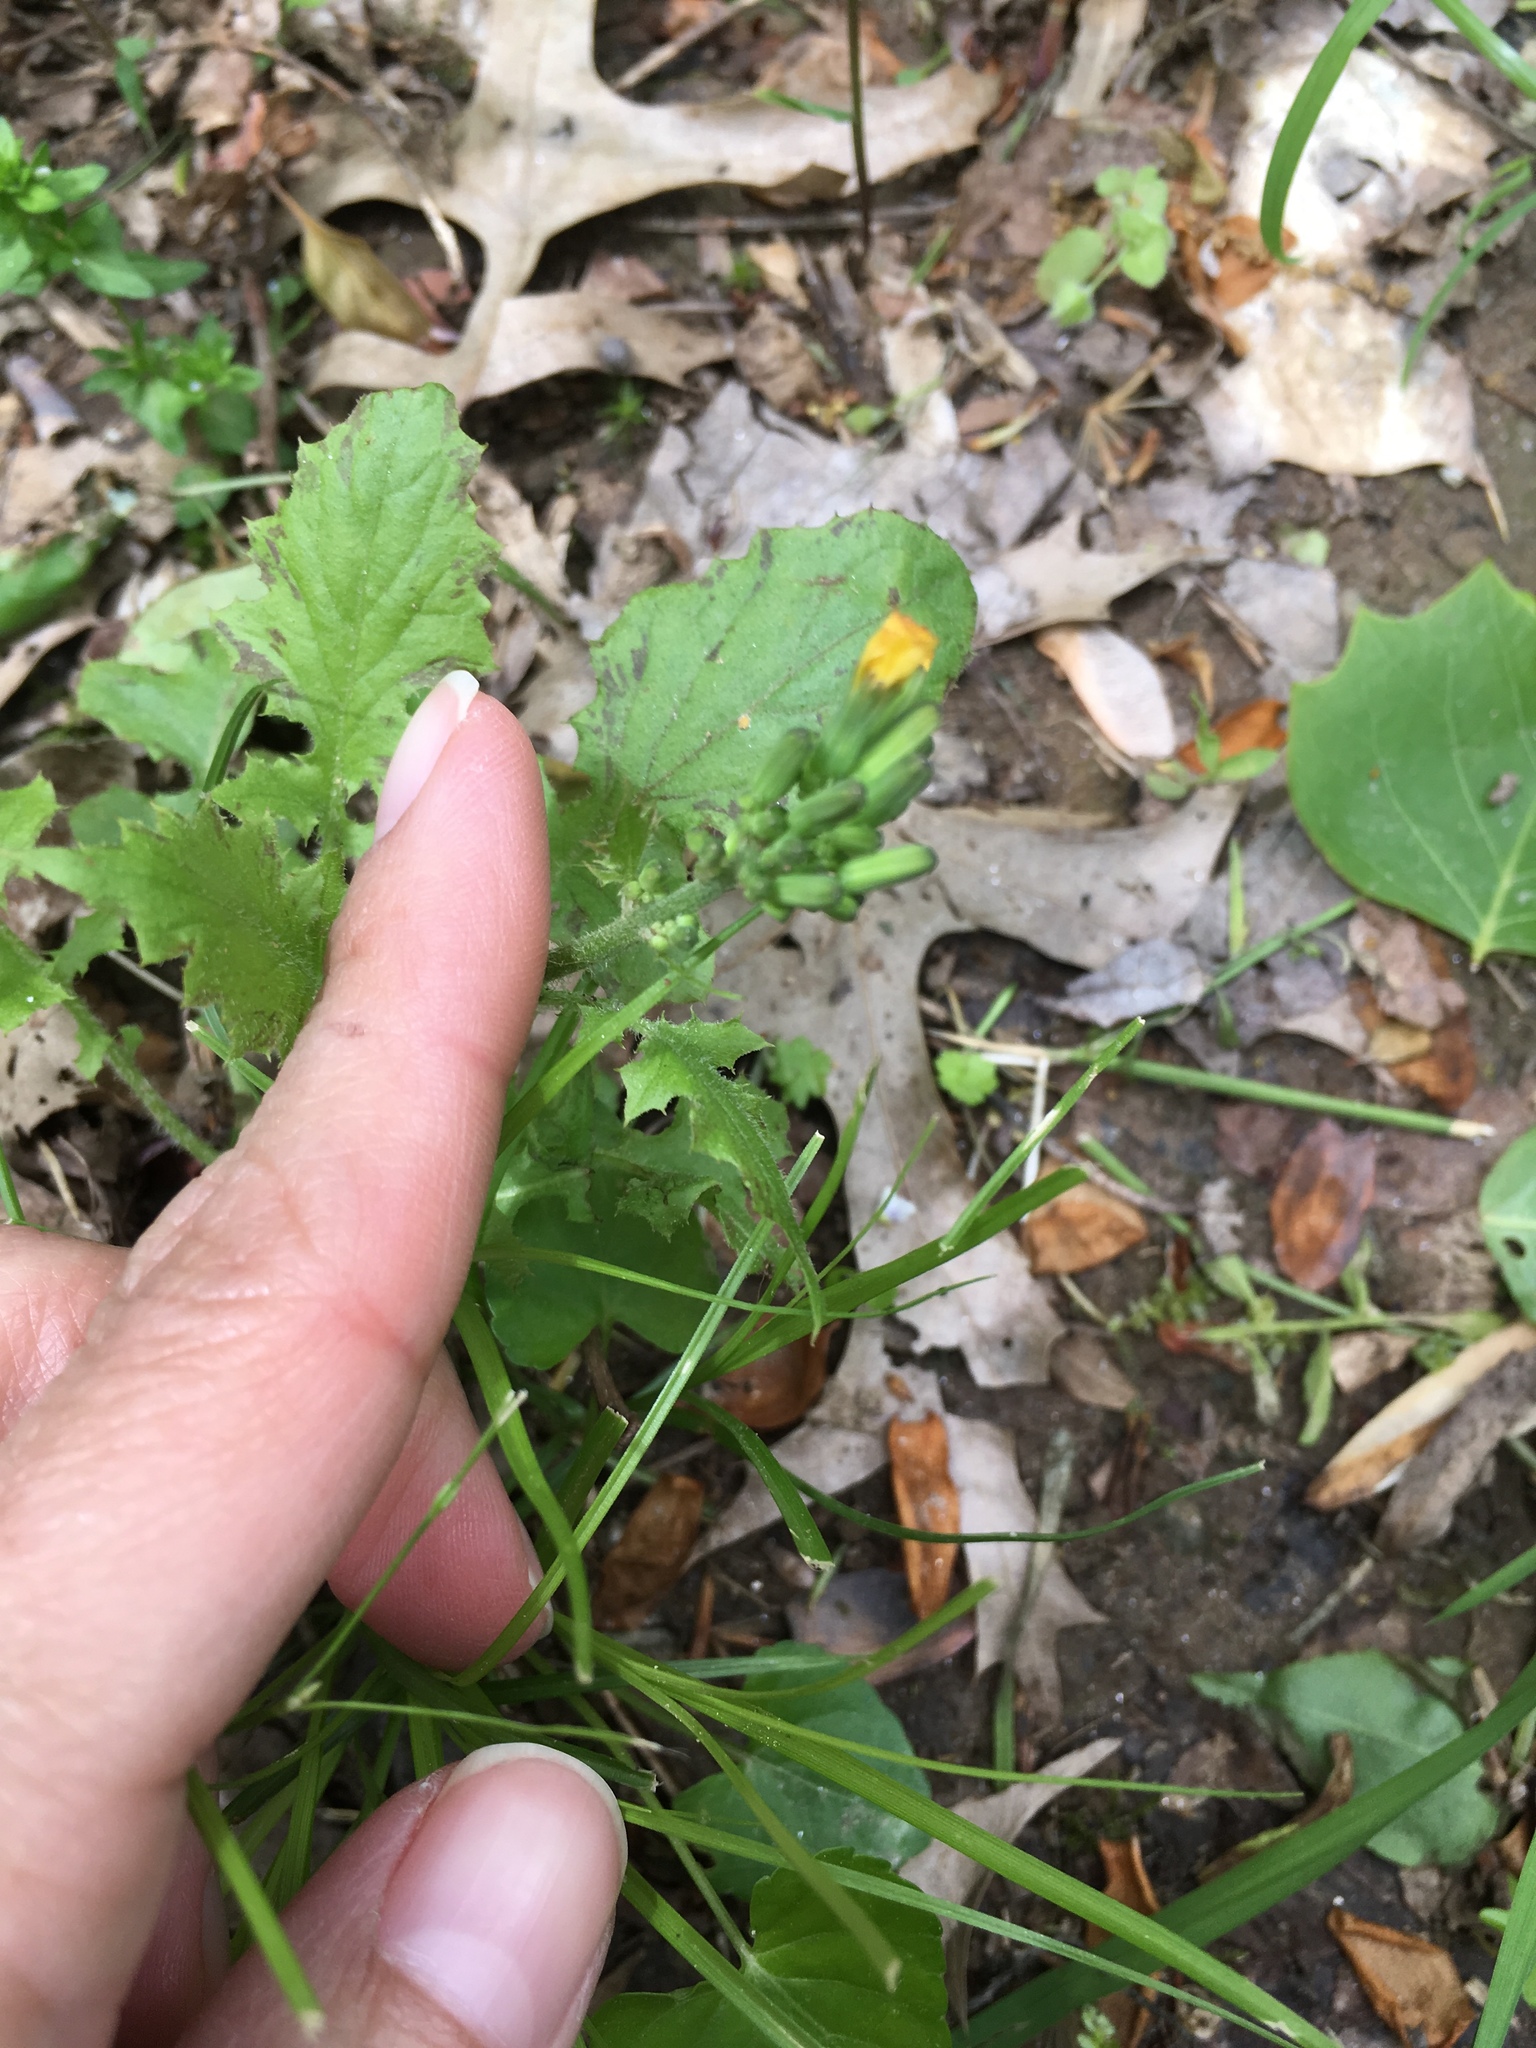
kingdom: Plantae
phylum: Tracheophyta
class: Magnoliopsida
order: Asterales
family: Asteraceae
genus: Youngia
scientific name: Youngia japonica
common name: Oriental false hawksbeard
